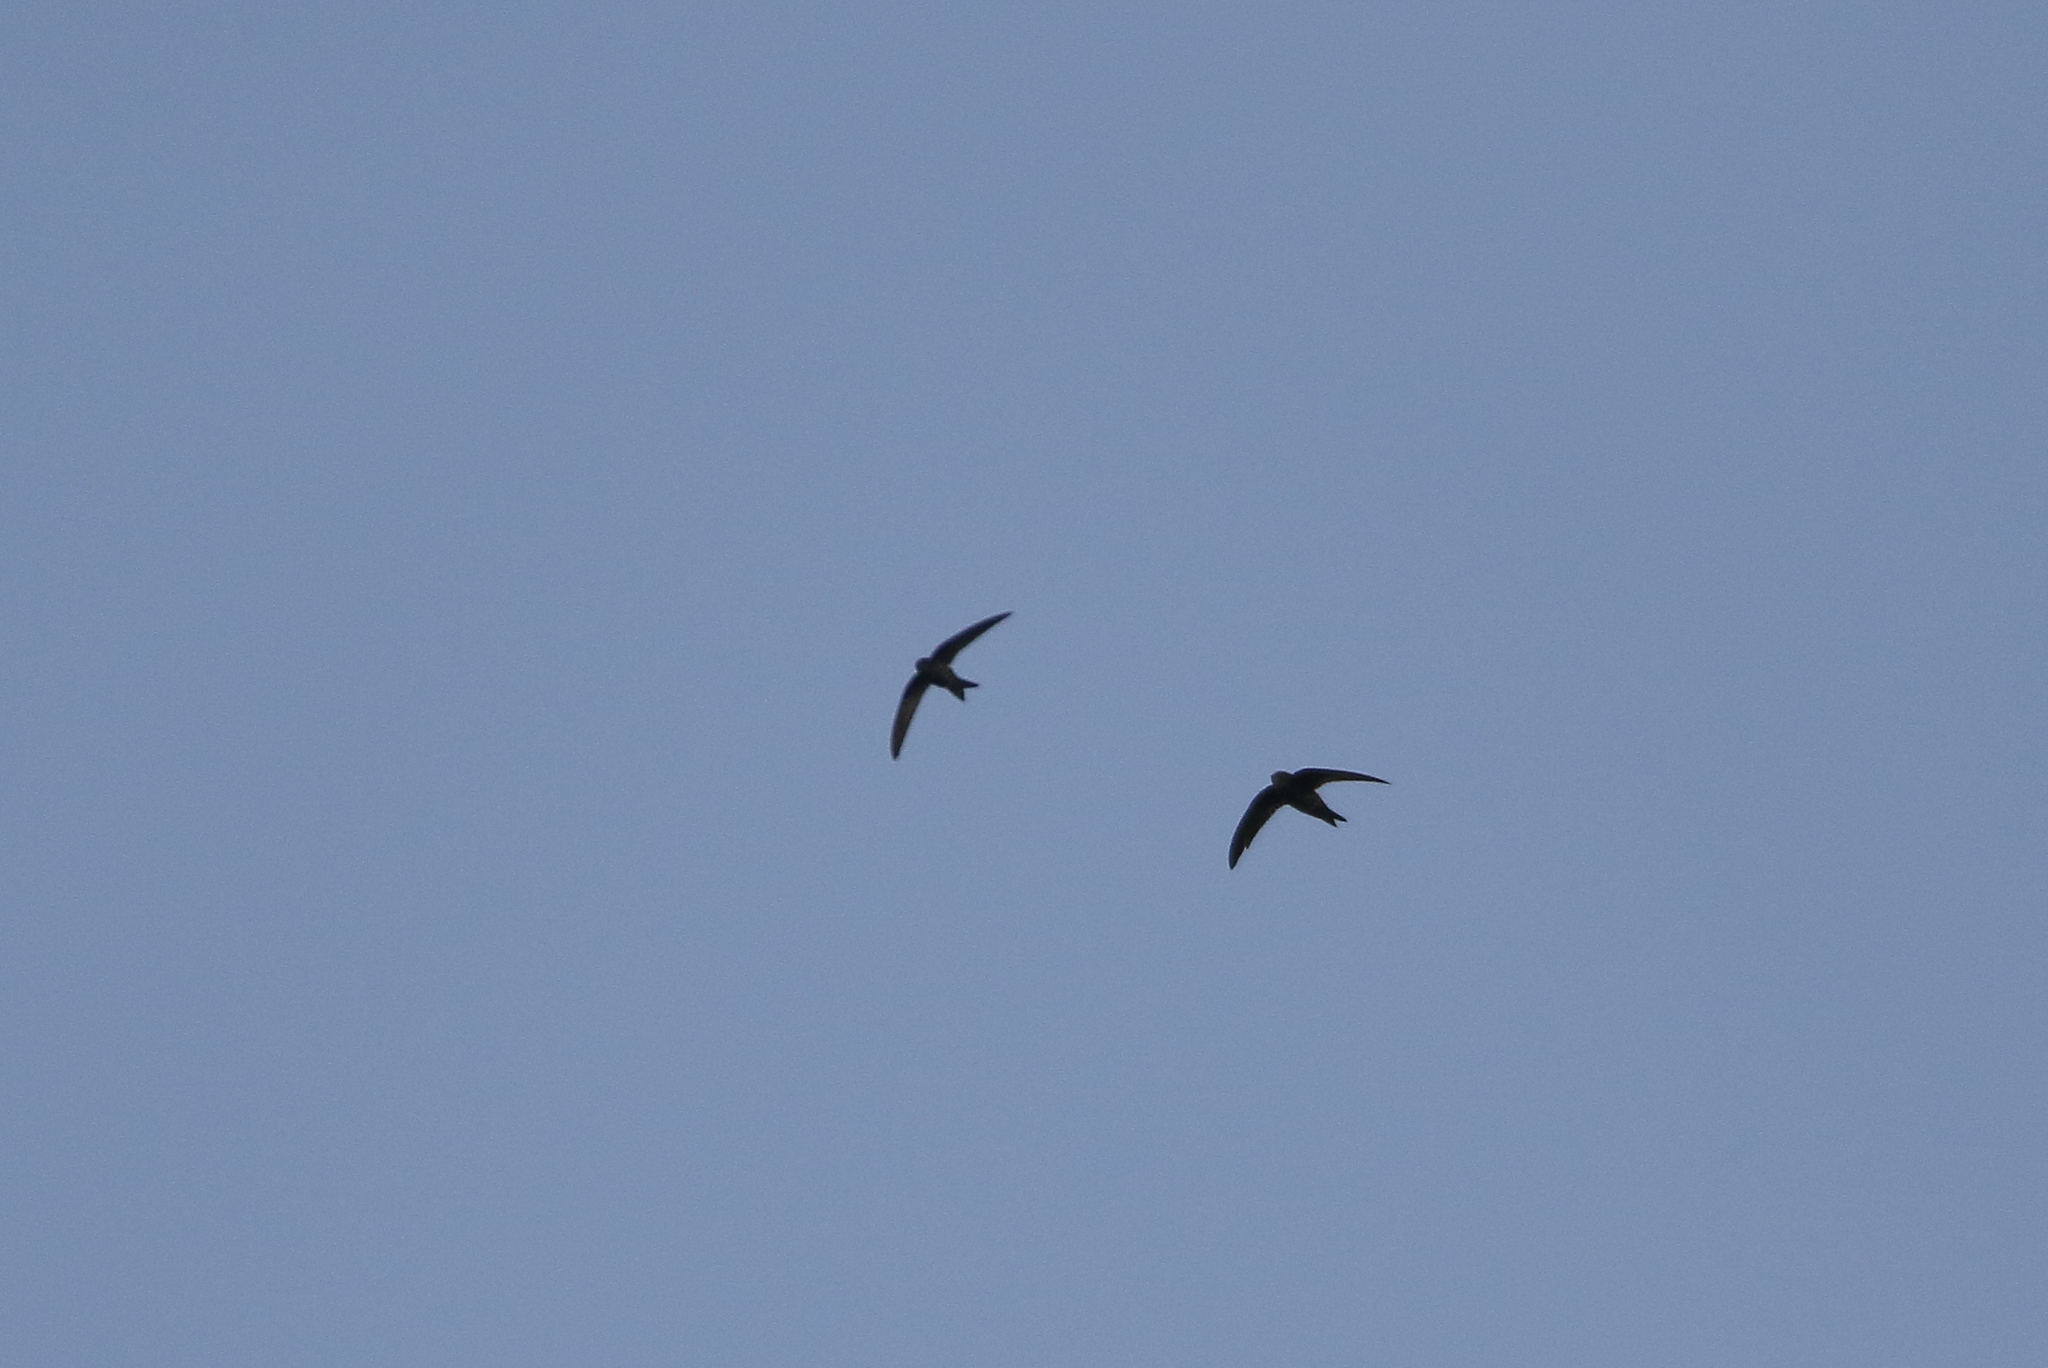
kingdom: Animalia
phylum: Chordata
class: Aves
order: Apodiformes
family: Apodidae
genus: Apus
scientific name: Apus cooki
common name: Cook's swift
